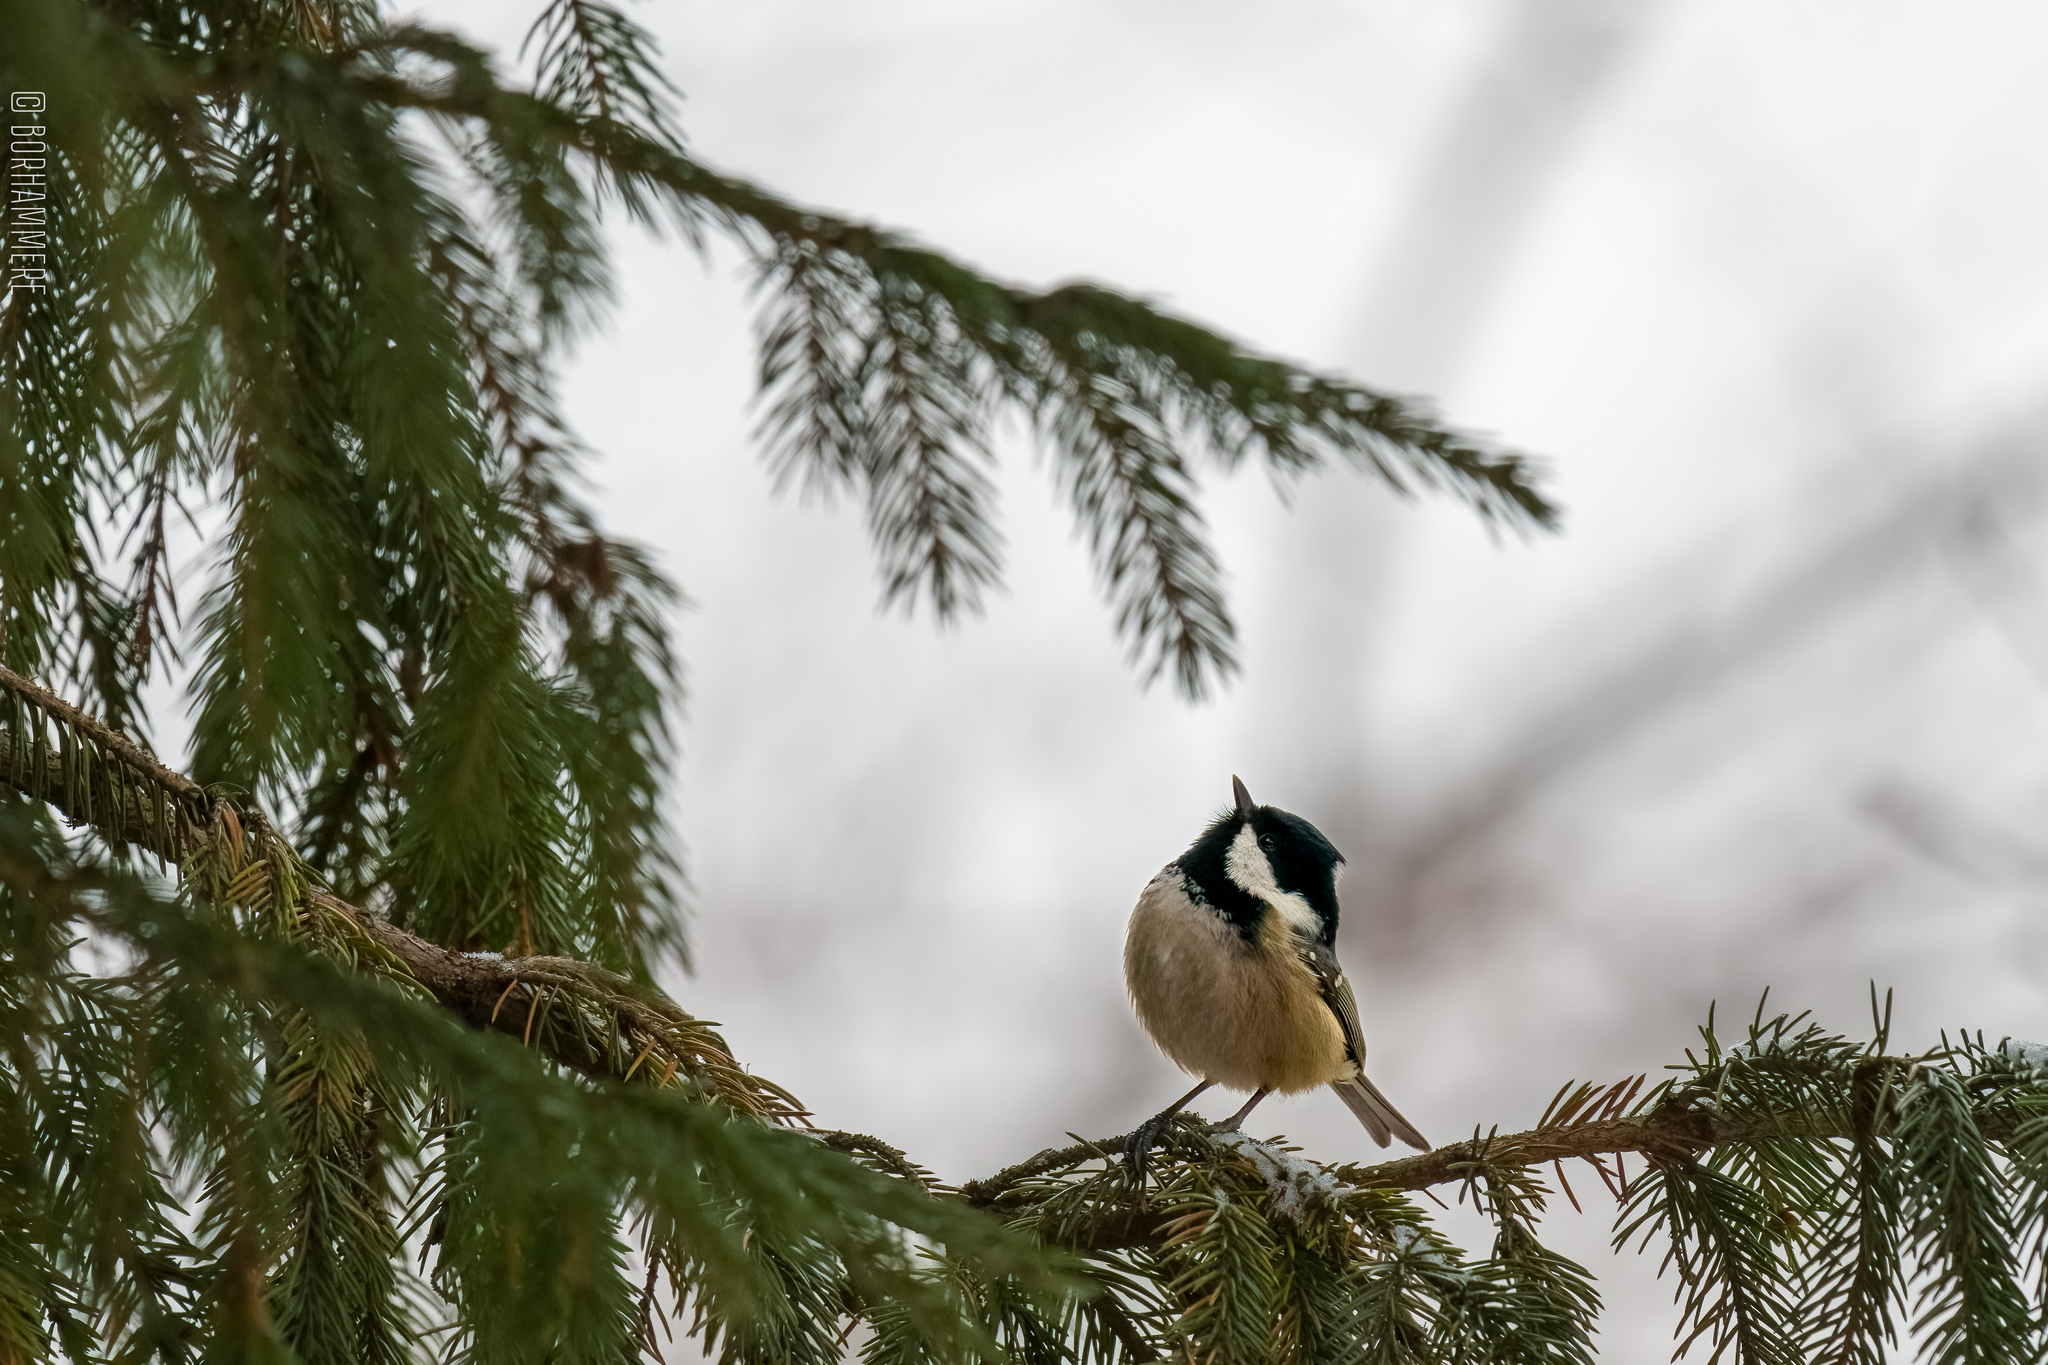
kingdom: Animalia
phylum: Chordata
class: Aves
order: Passeriformes
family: Paridae
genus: Periparus
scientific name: Periparus ater
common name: Coal tit
